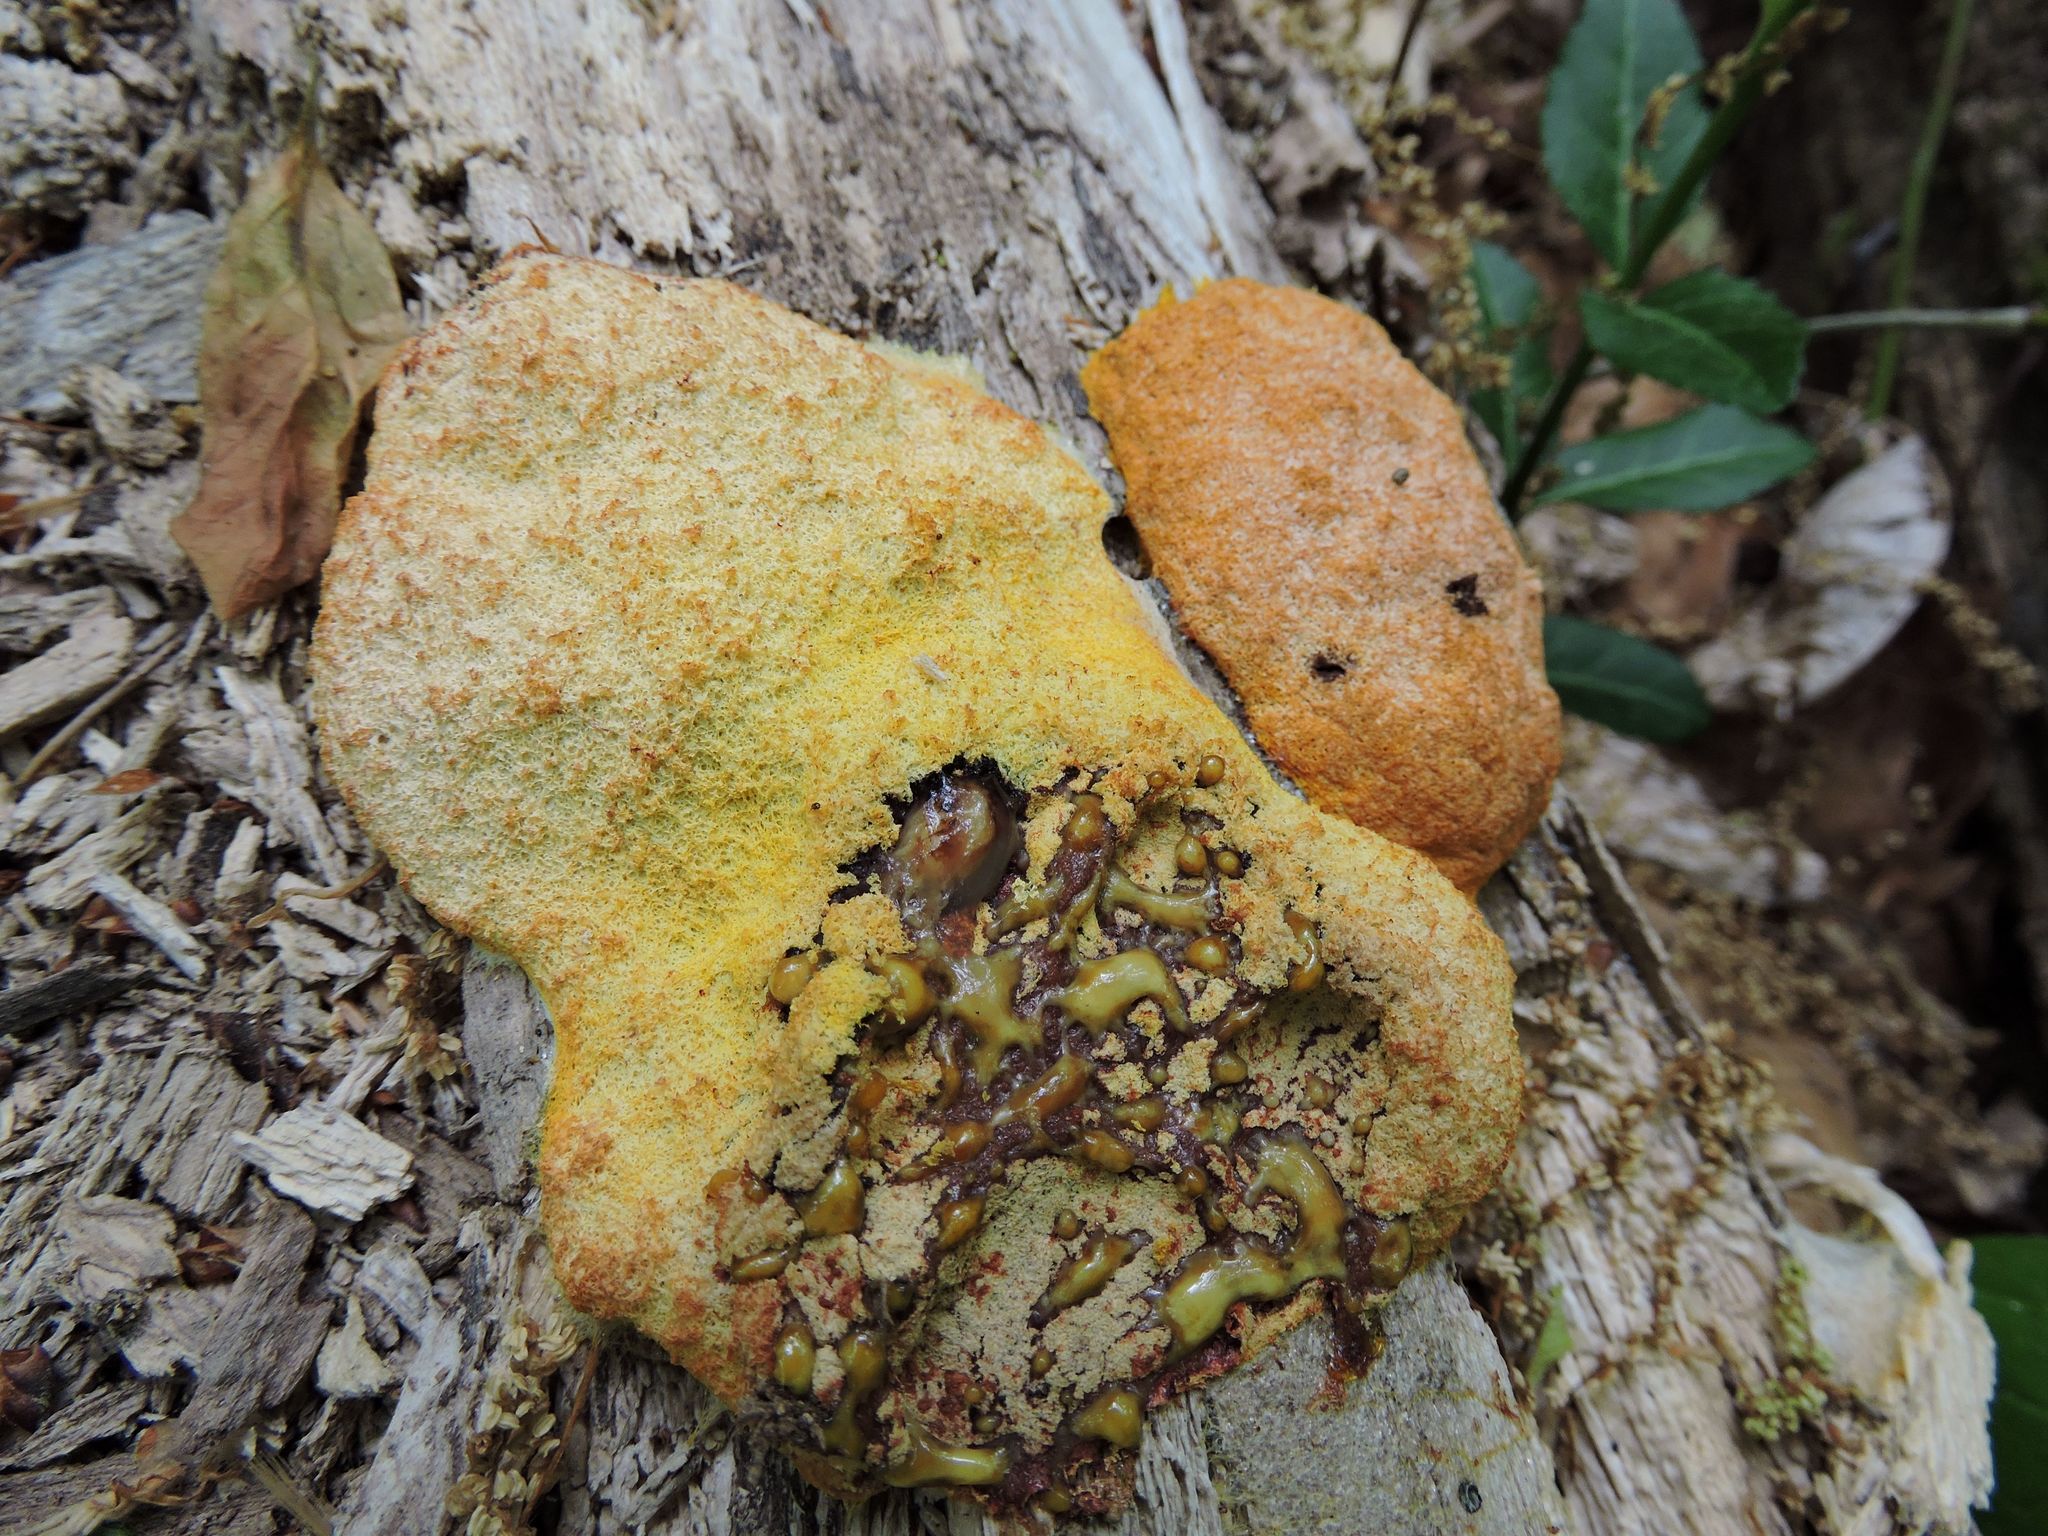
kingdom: Protozoa
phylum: Mycetozoa
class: Myxomycetes
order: Physarales
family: Physaraceae
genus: Fuligo
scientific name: Fuligo septica
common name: Dog vomit slime mold
